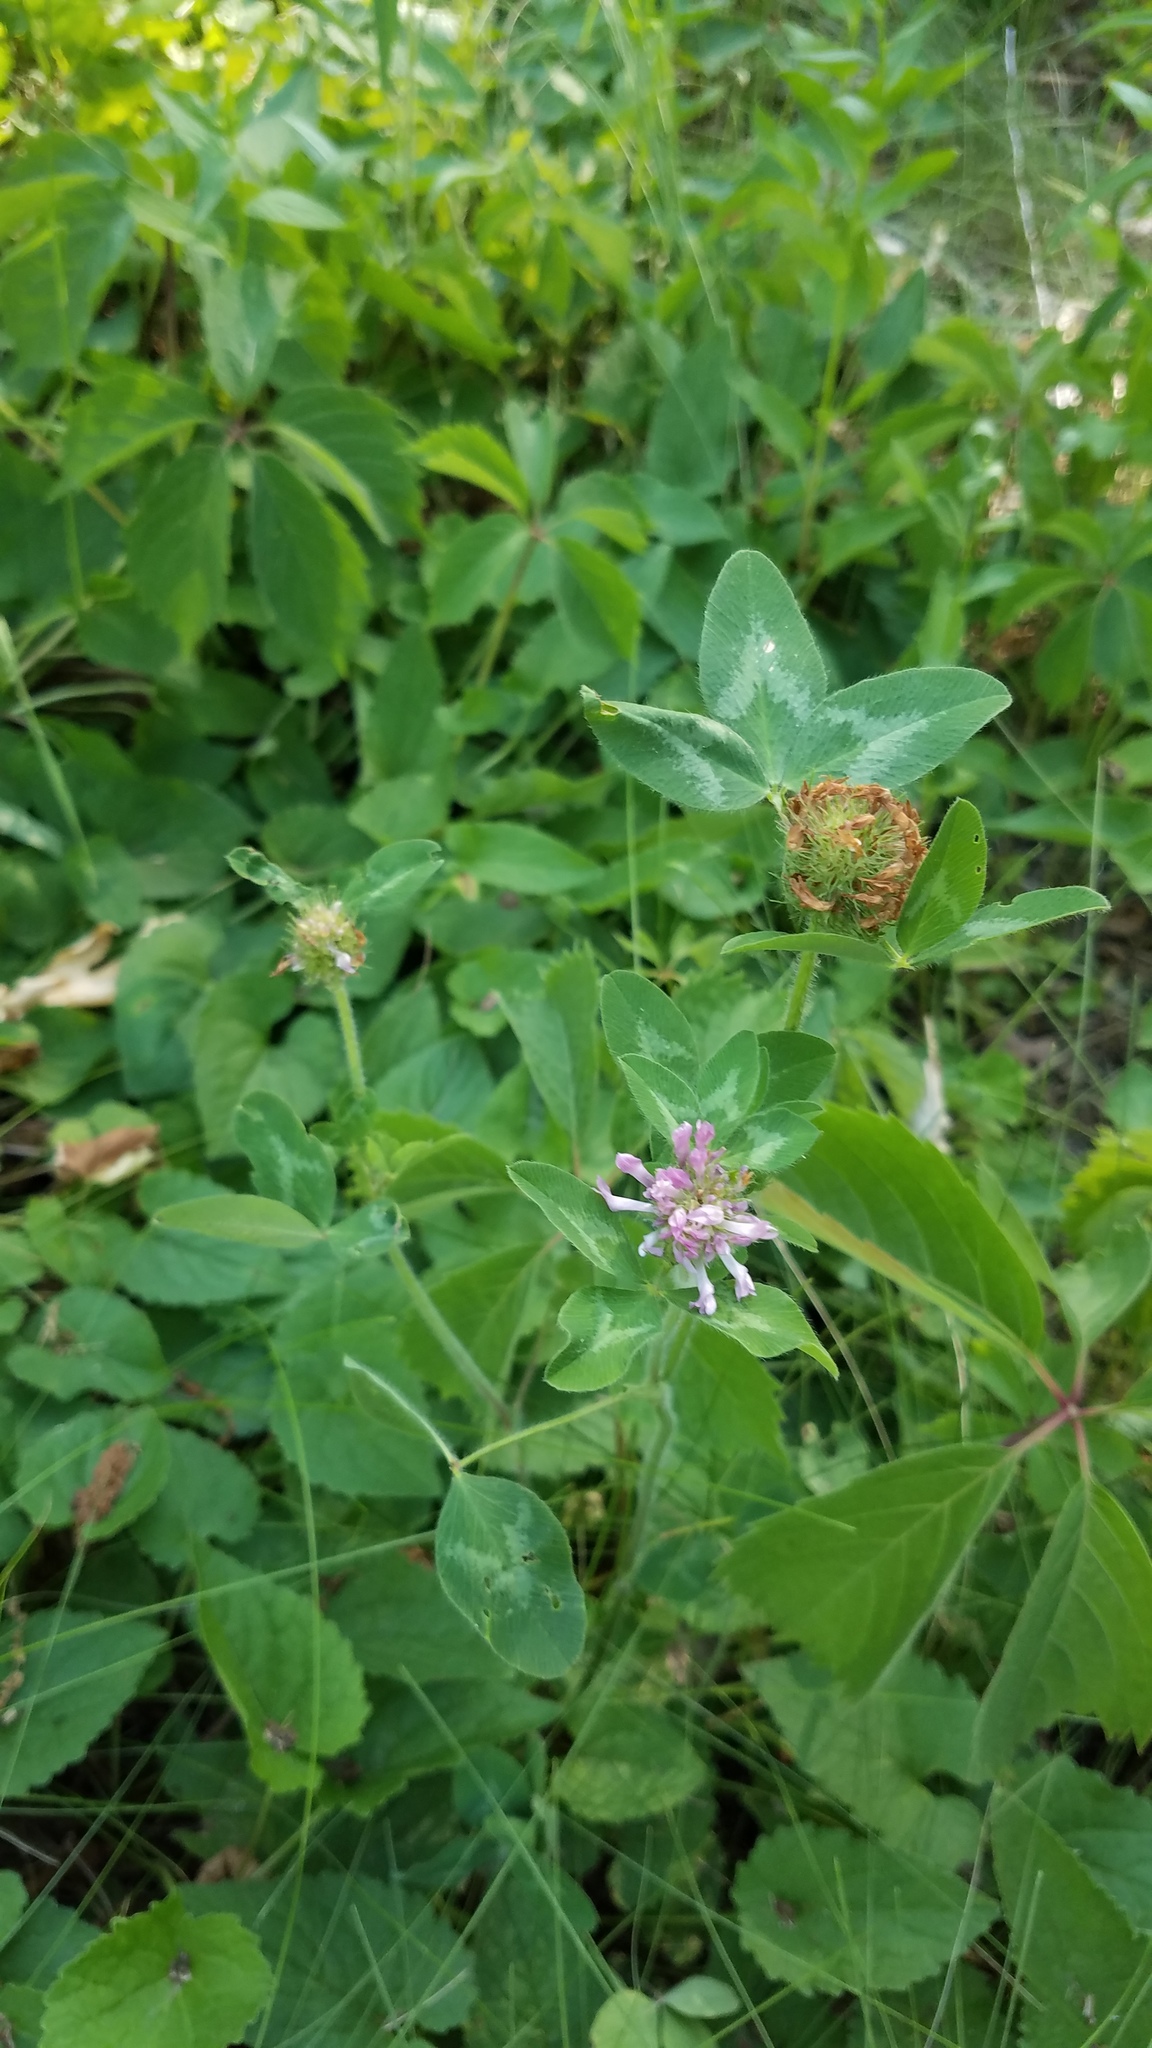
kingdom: Plantae
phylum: Tracheophyta
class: Magnoliopsida
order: Fabales
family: Fabaceae
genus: Trifolium
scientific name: Trifolium pratense
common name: Red clover
